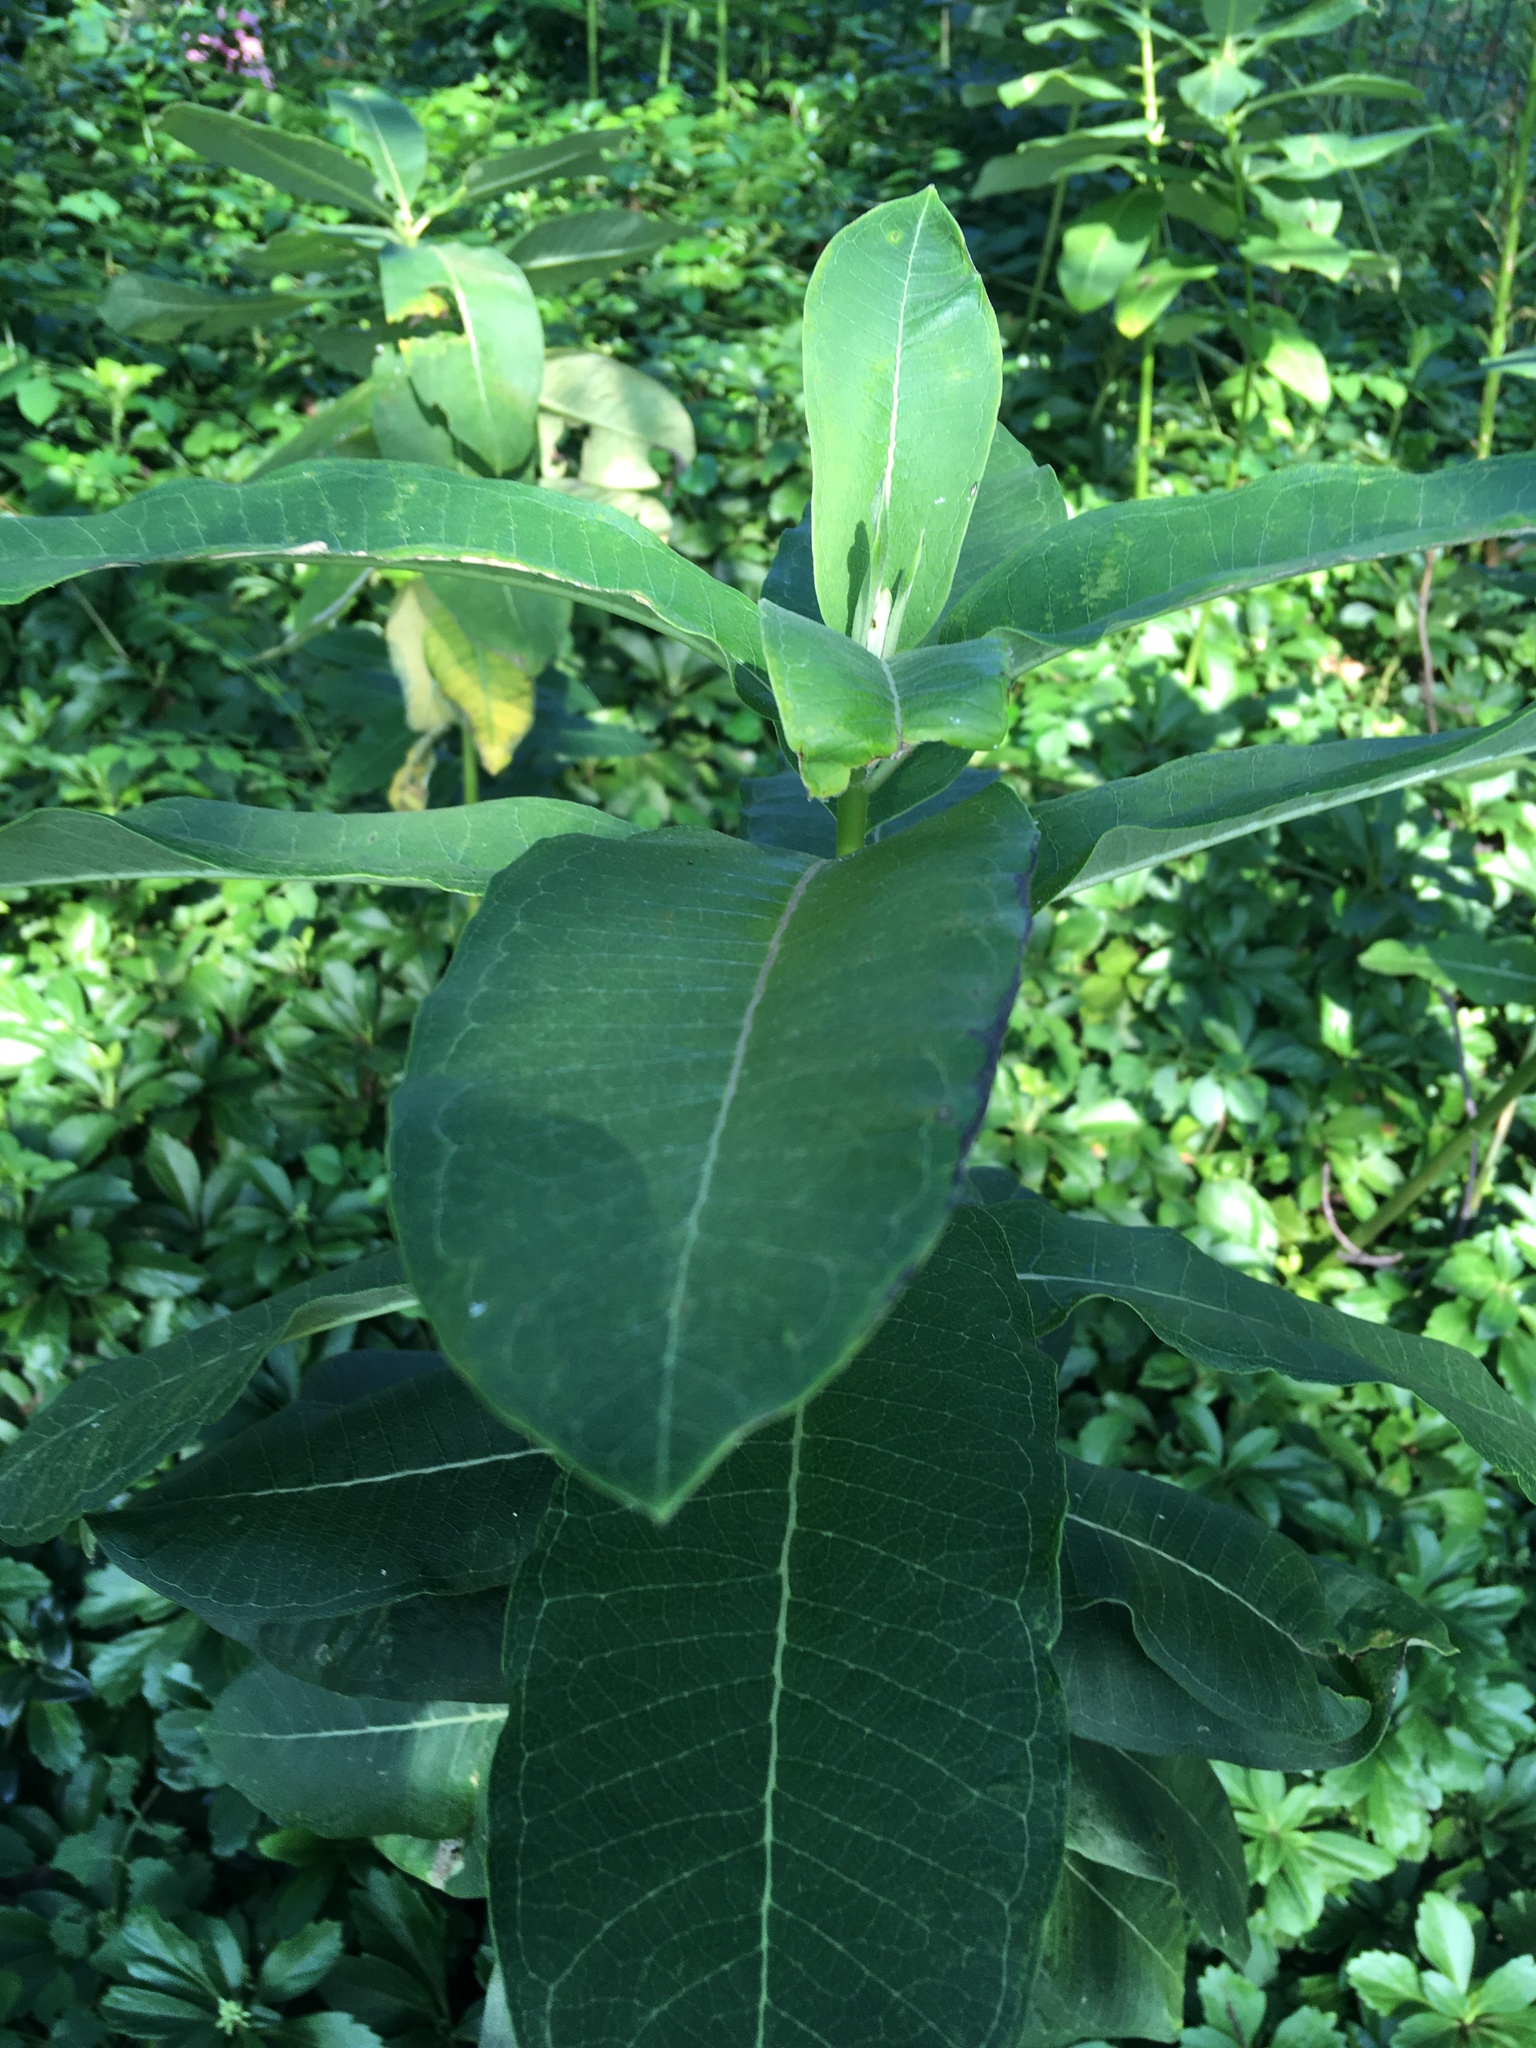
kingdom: Plantae
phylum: Tracheophyta
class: Magnoliopsida
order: Gentianales
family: Apocynaceae
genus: Asclepias
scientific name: Asclepias syriaca
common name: Common milkweed
